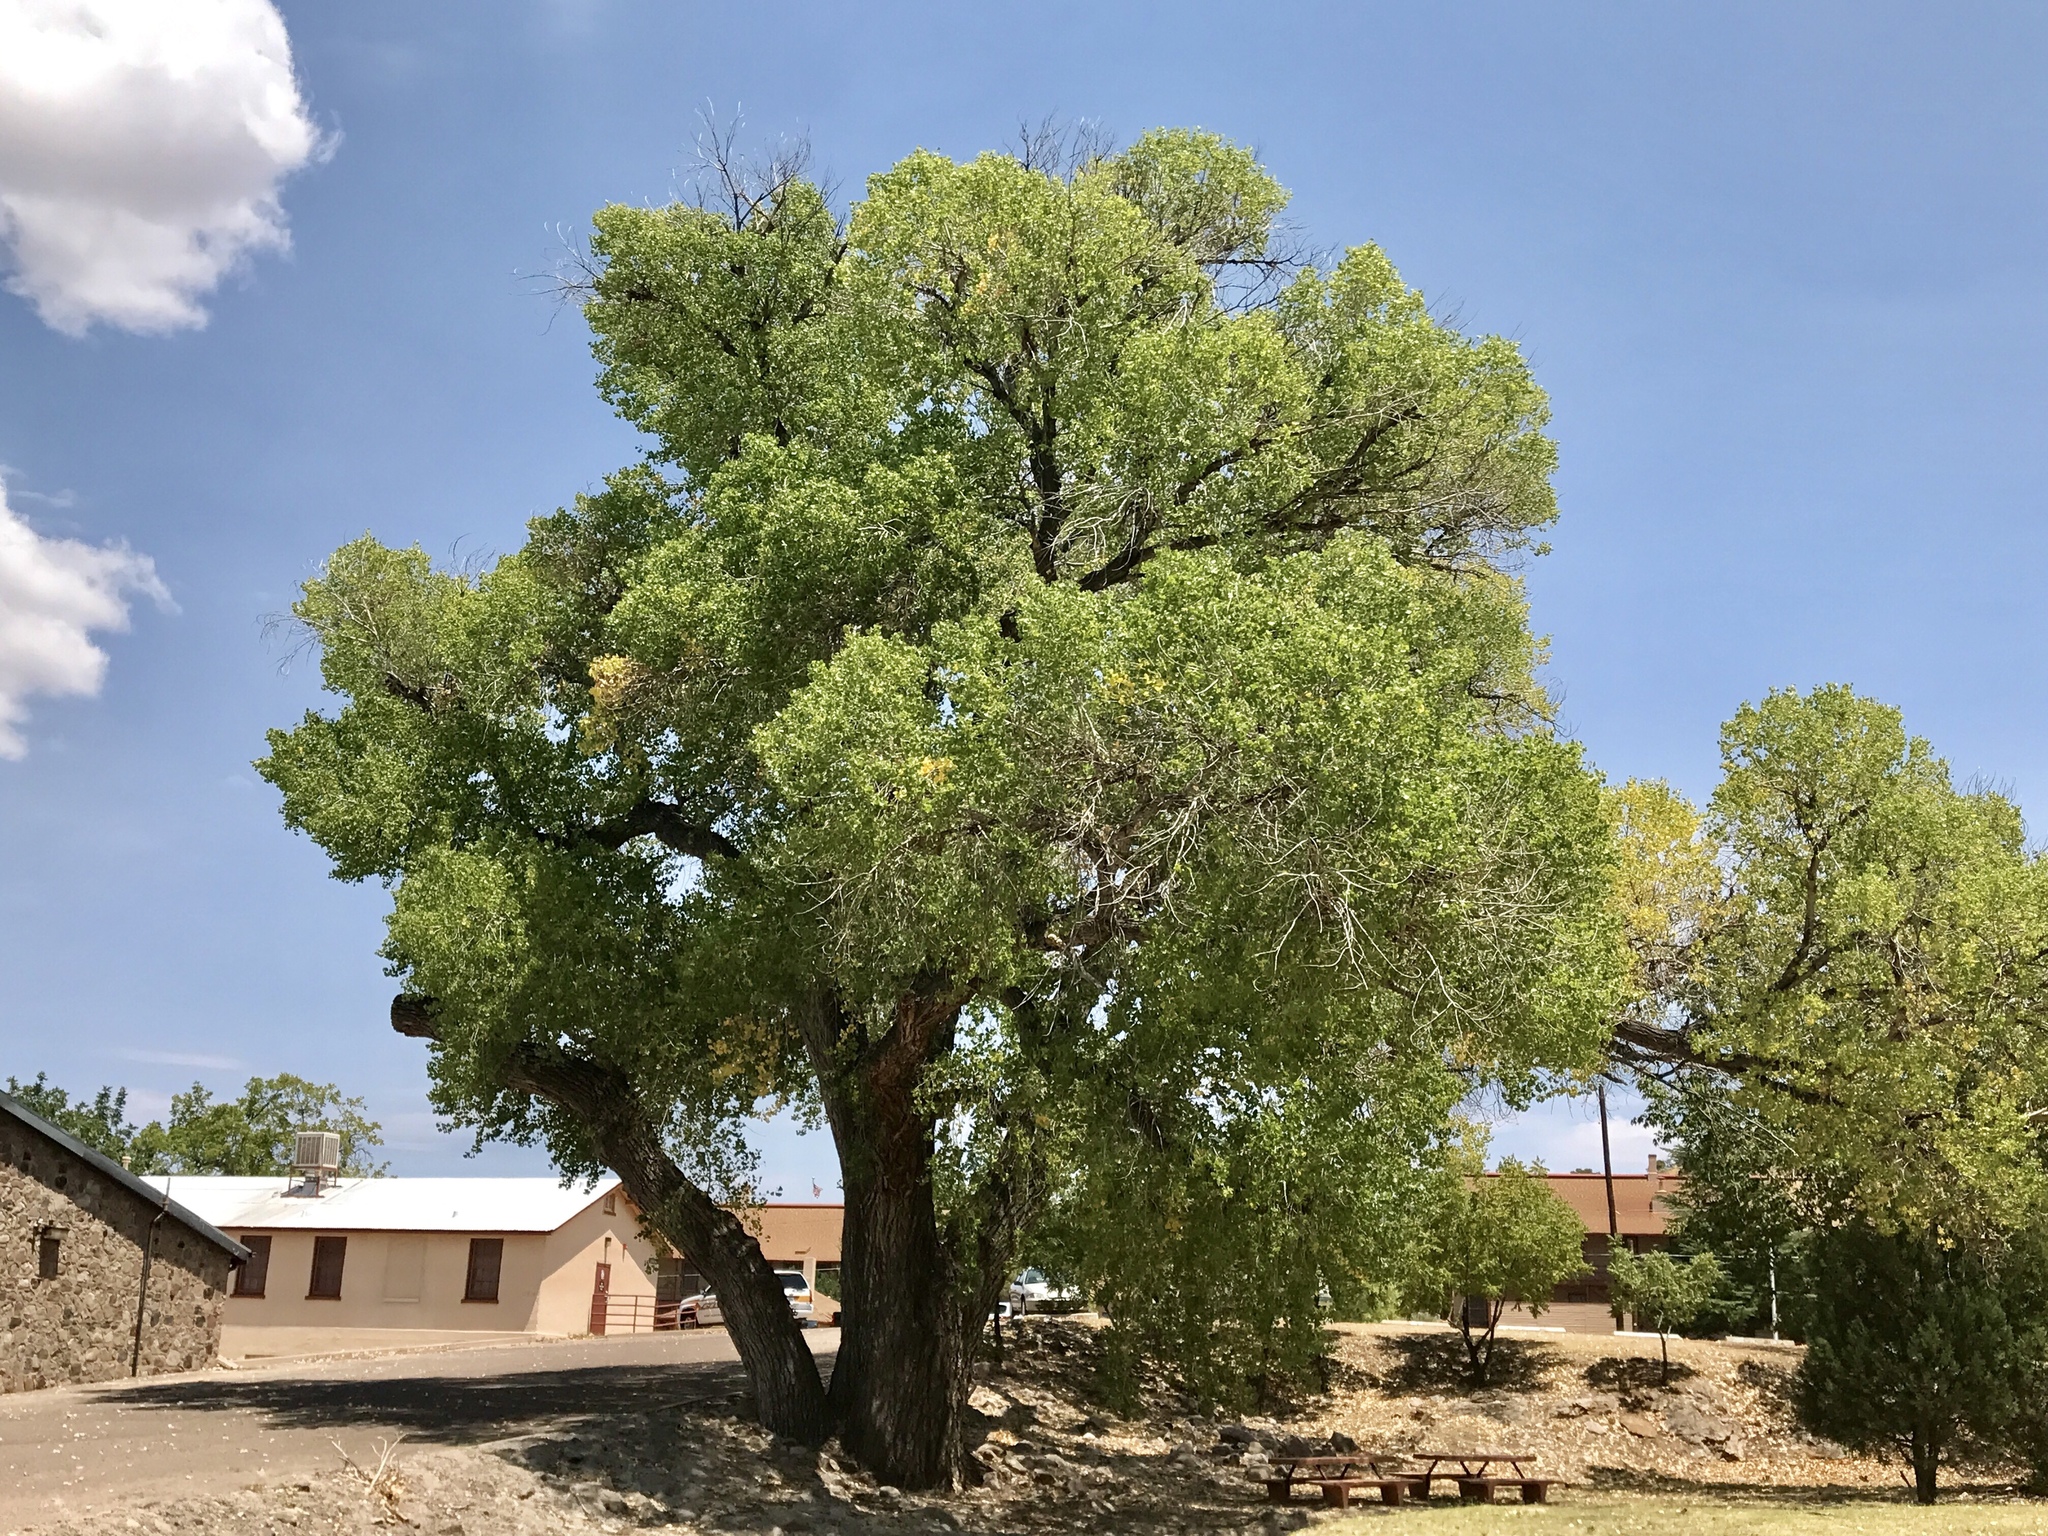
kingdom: Plantae
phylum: Tracheophyta
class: Magnoliopsida
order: Malpighiales
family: Salicaceae
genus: Populus
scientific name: Populus fremontii
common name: Fremont's cottonwood
